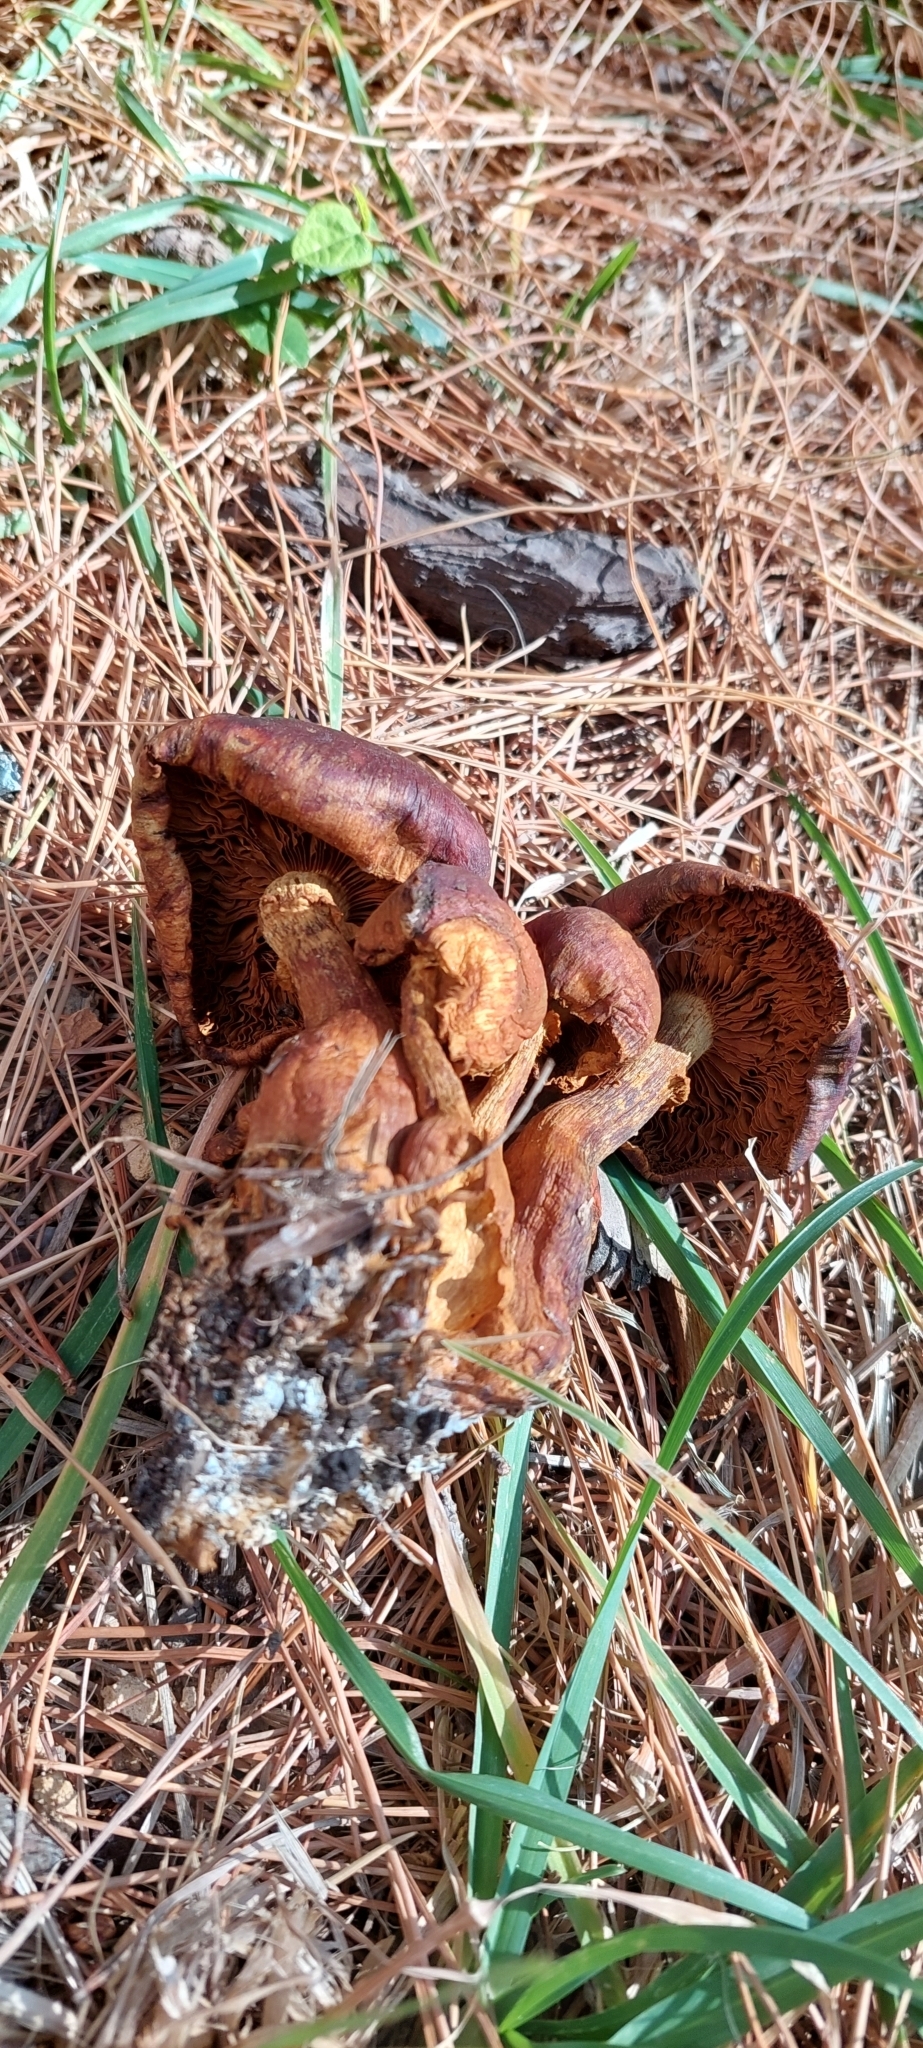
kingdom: Fungi
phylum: Basidiomycota
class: Agaricomycetes
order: Agaricales
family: Hymenogastraceae
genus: Gymnopilus
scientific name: Gymnopilus junonius
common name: Spectacular rustgill
